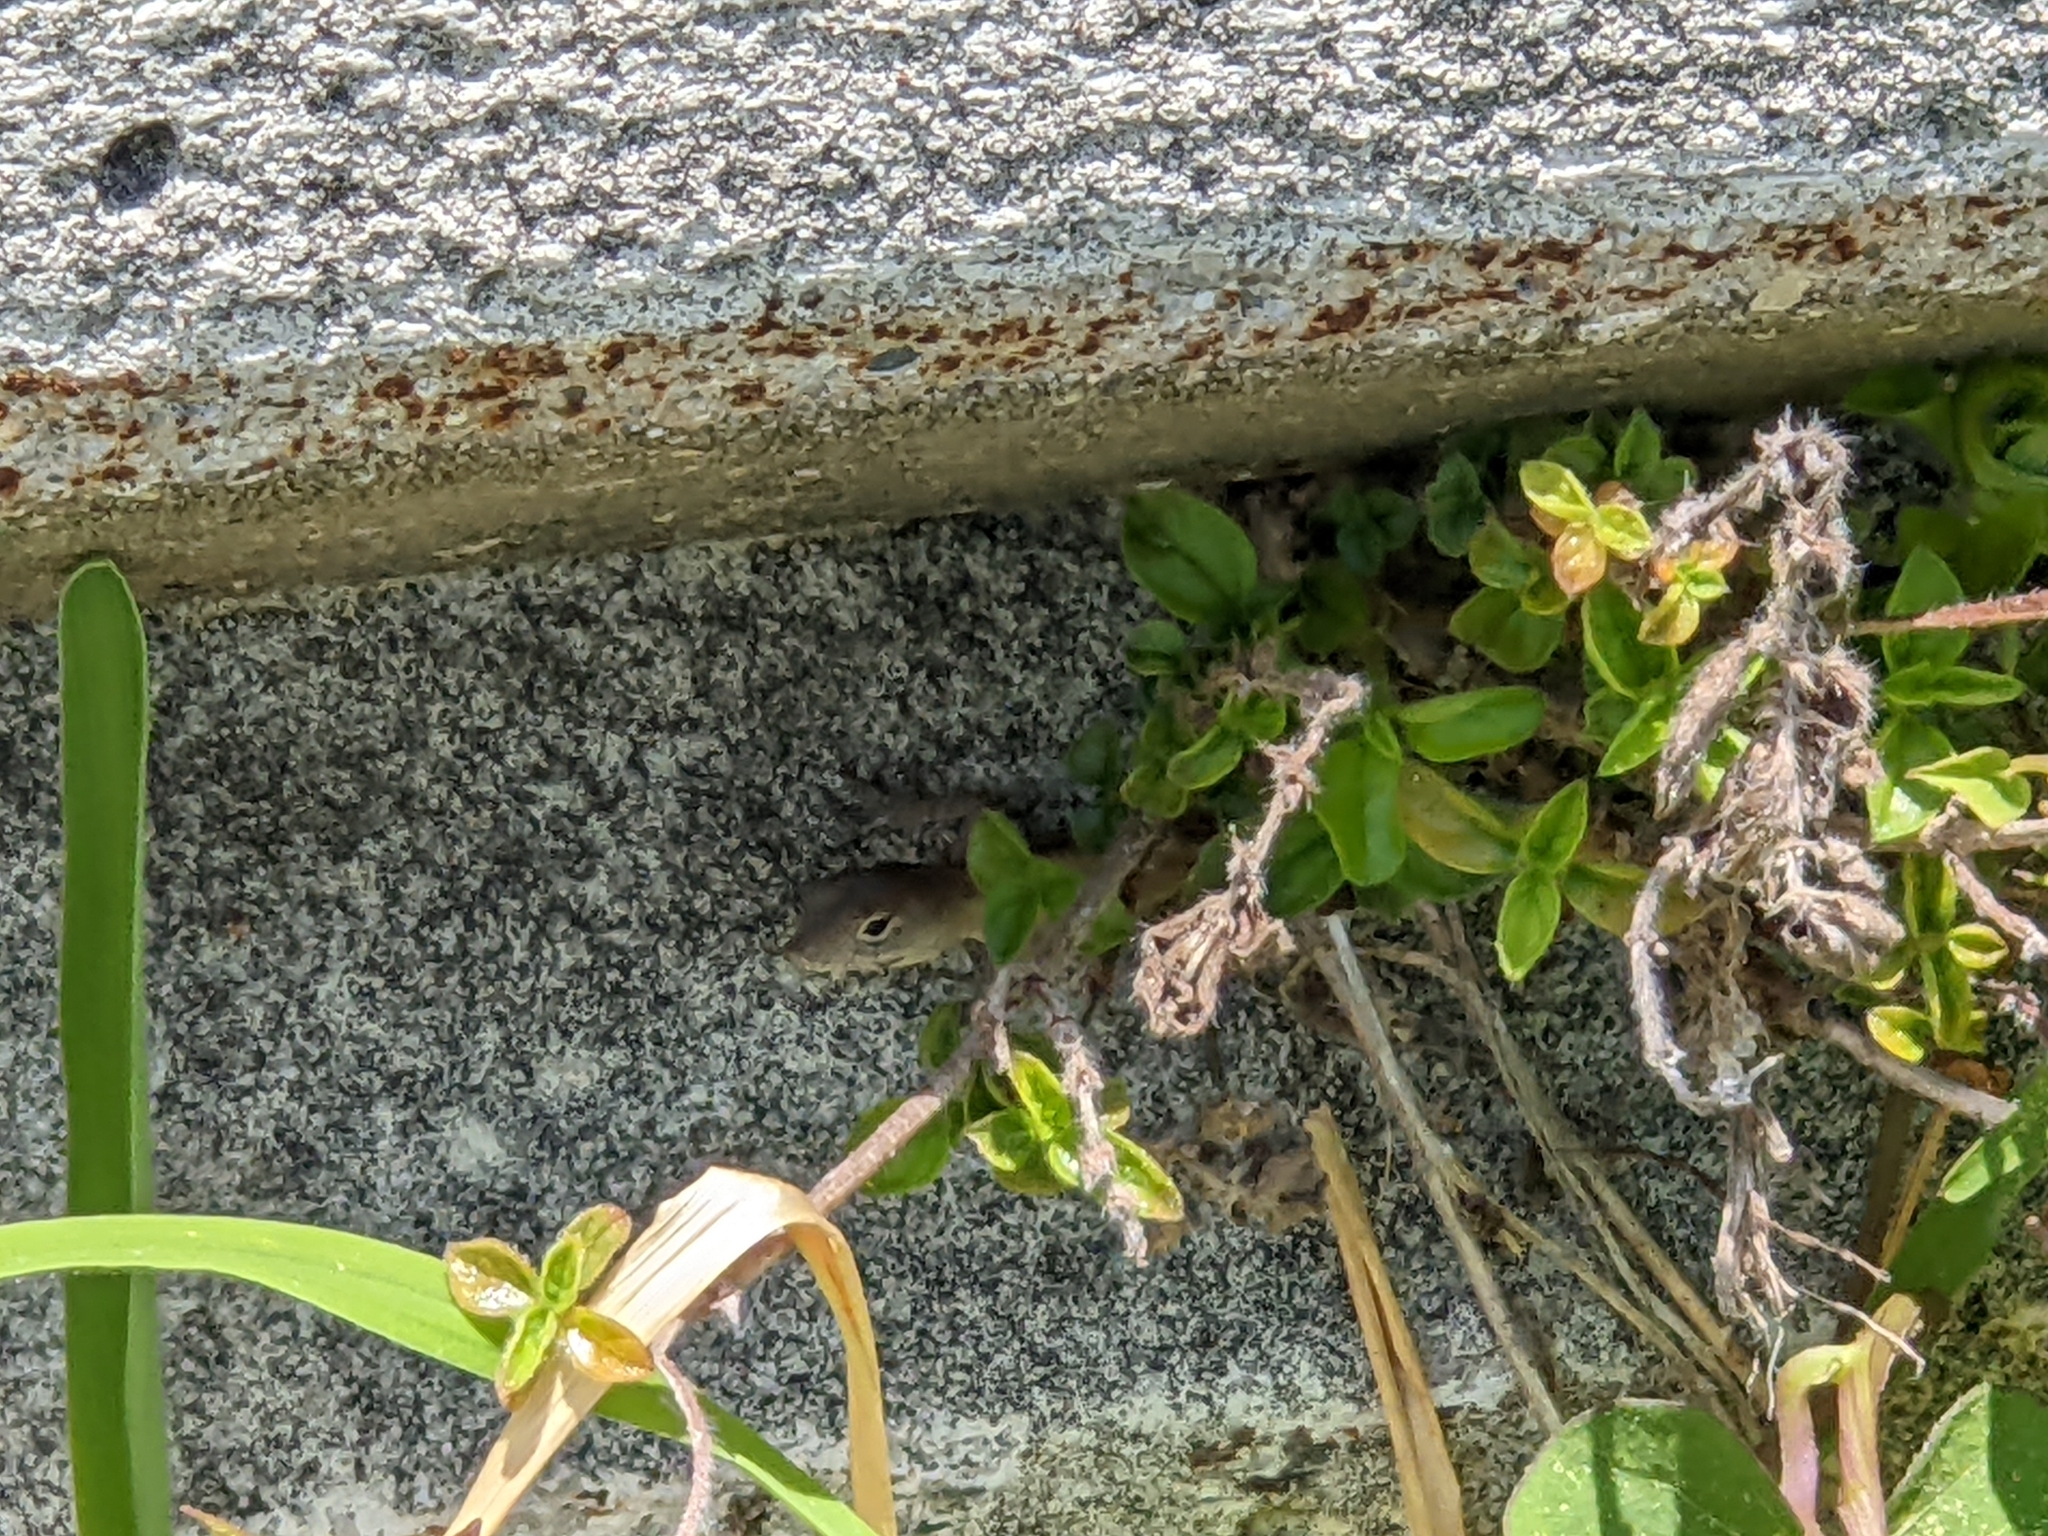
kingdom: Animalia
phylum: Chordata
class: Squamata
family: Dactyloidae
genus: Anolis
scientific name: Anolis sagrei
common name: Brown anole
